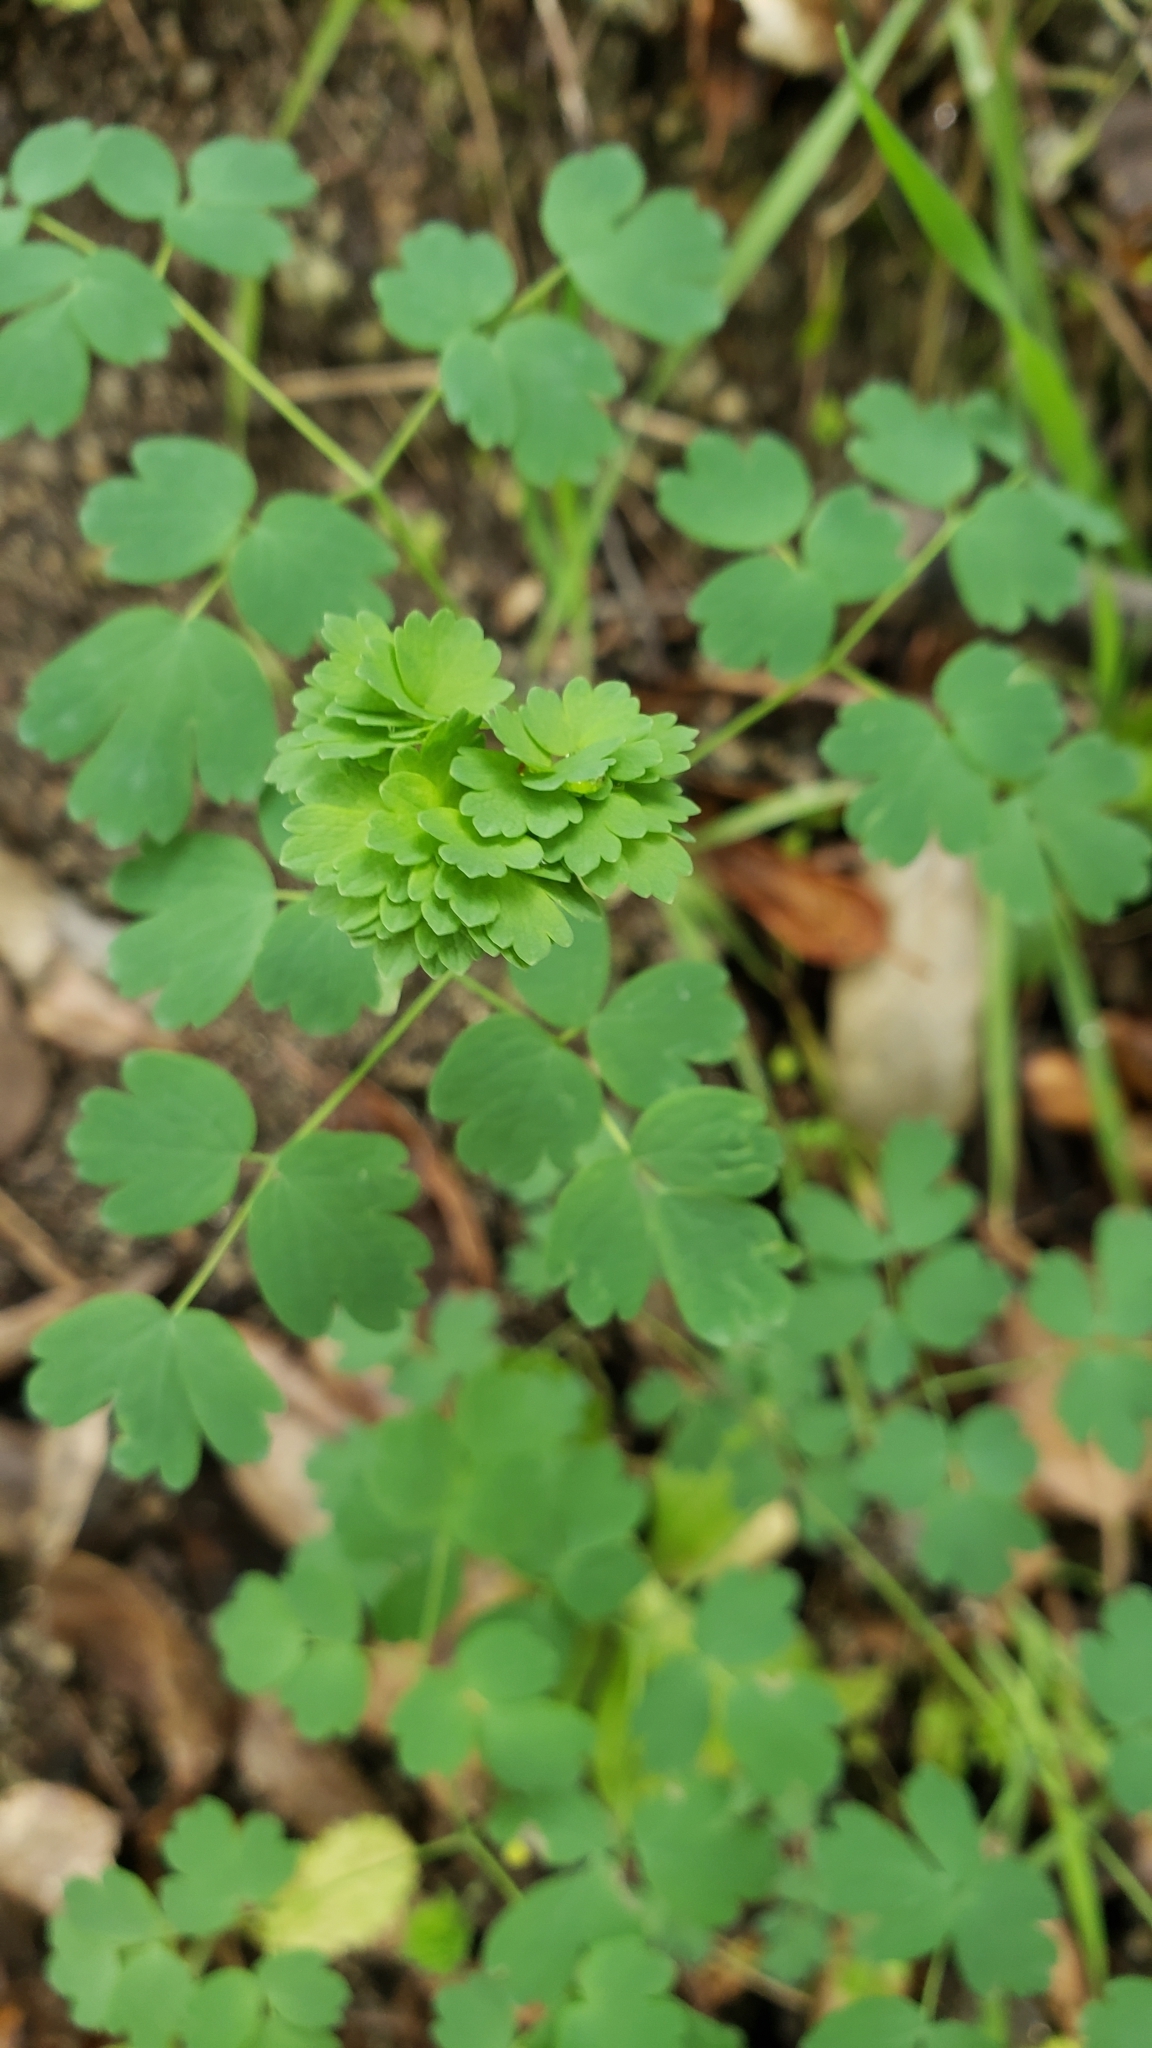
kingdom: Plantae
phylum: Tracheophyta
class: Magnoliopsida
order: Ranunculales
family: Ranunculaceae
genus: Thalictrum
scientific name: Thalictrum fendleri
